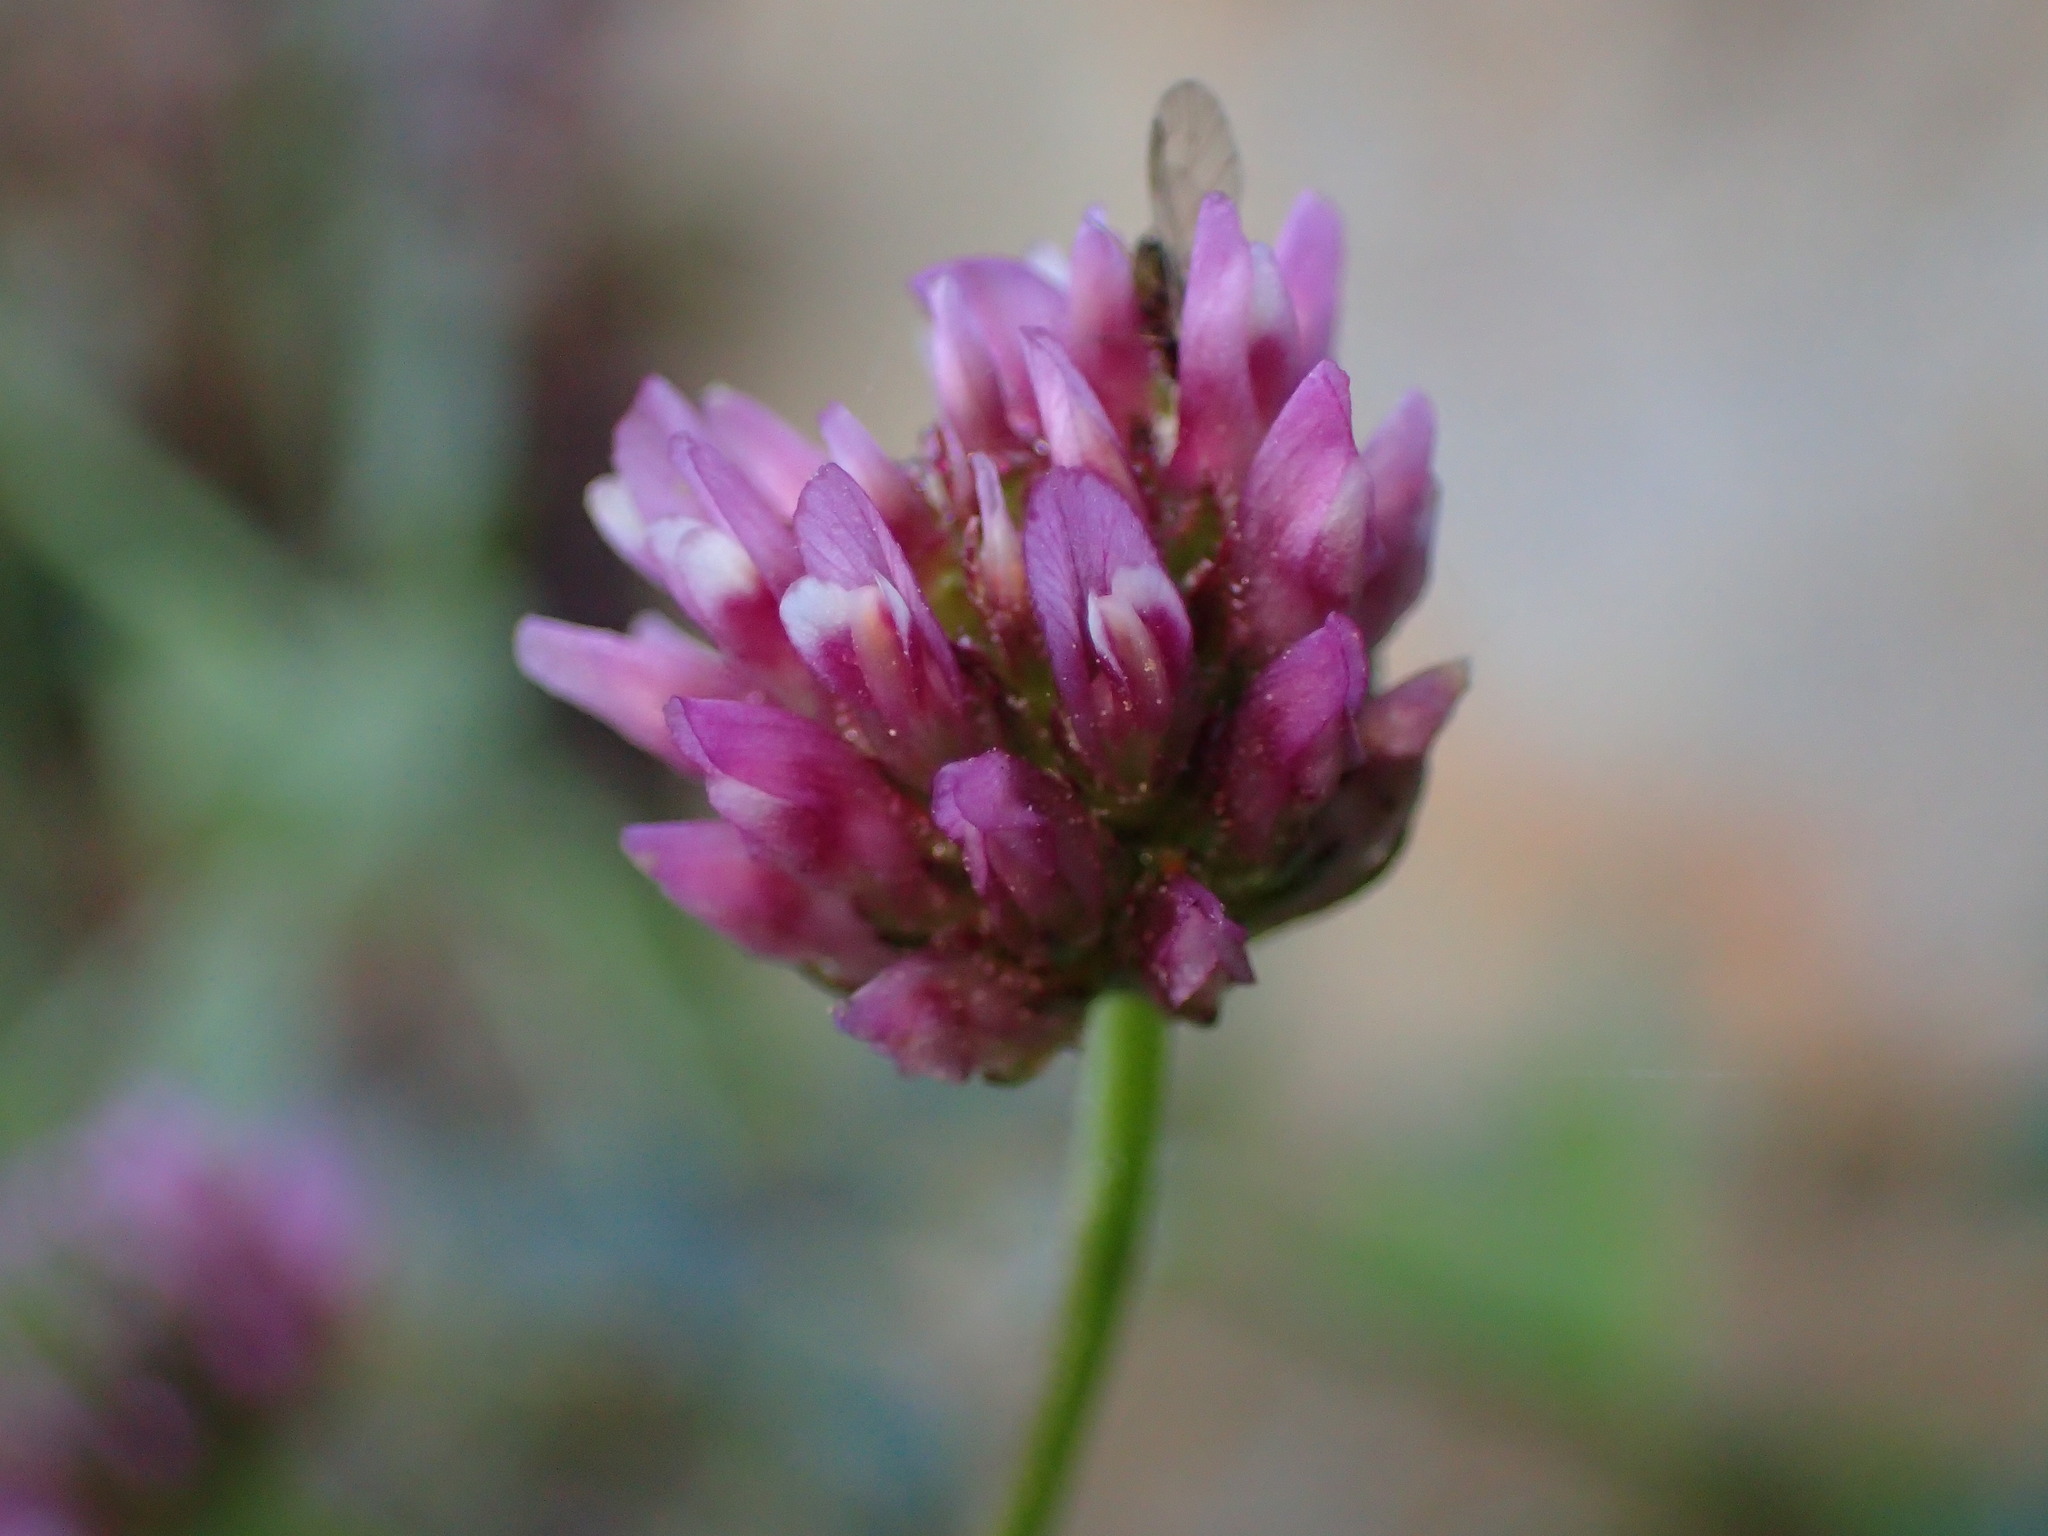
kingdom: Plantae
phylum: Tracheophyta
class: Magnoliopsida
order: Fabales
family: Fabaceae
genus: Trifolium
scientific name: Trifolium ciliolatum
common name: Foothill clover
